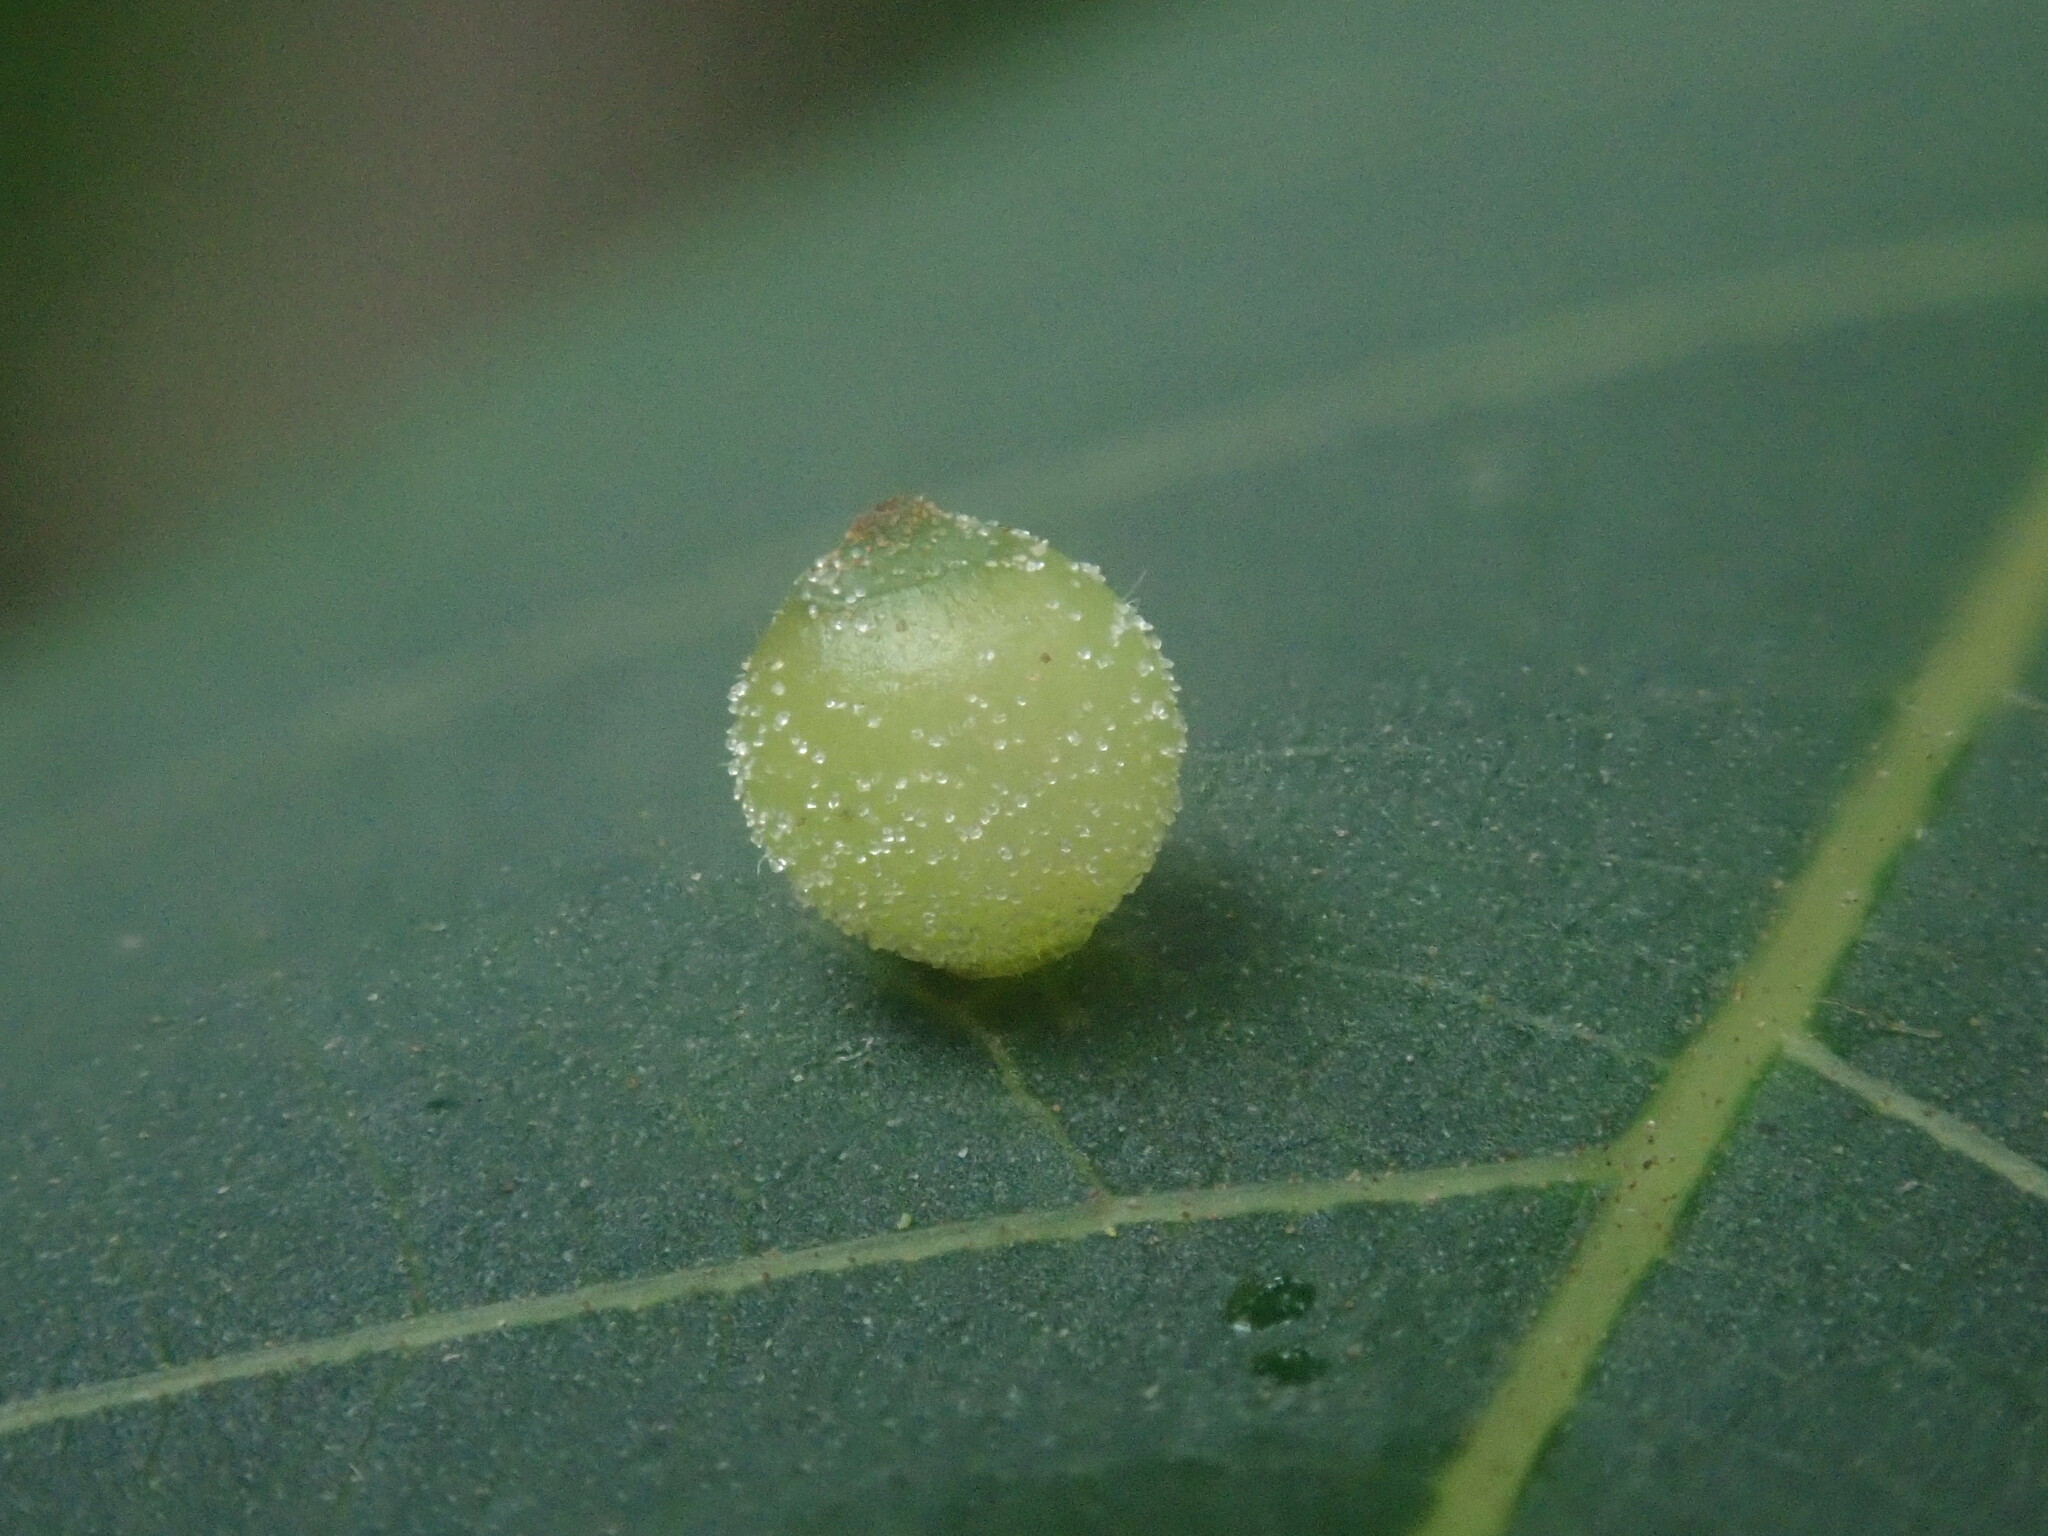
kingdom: Animalia
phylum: Arthropoda
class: Insecta
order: Diptera
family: Cecidomyiidae
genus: Caryomyia
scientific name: Caryomyia viscidolium
